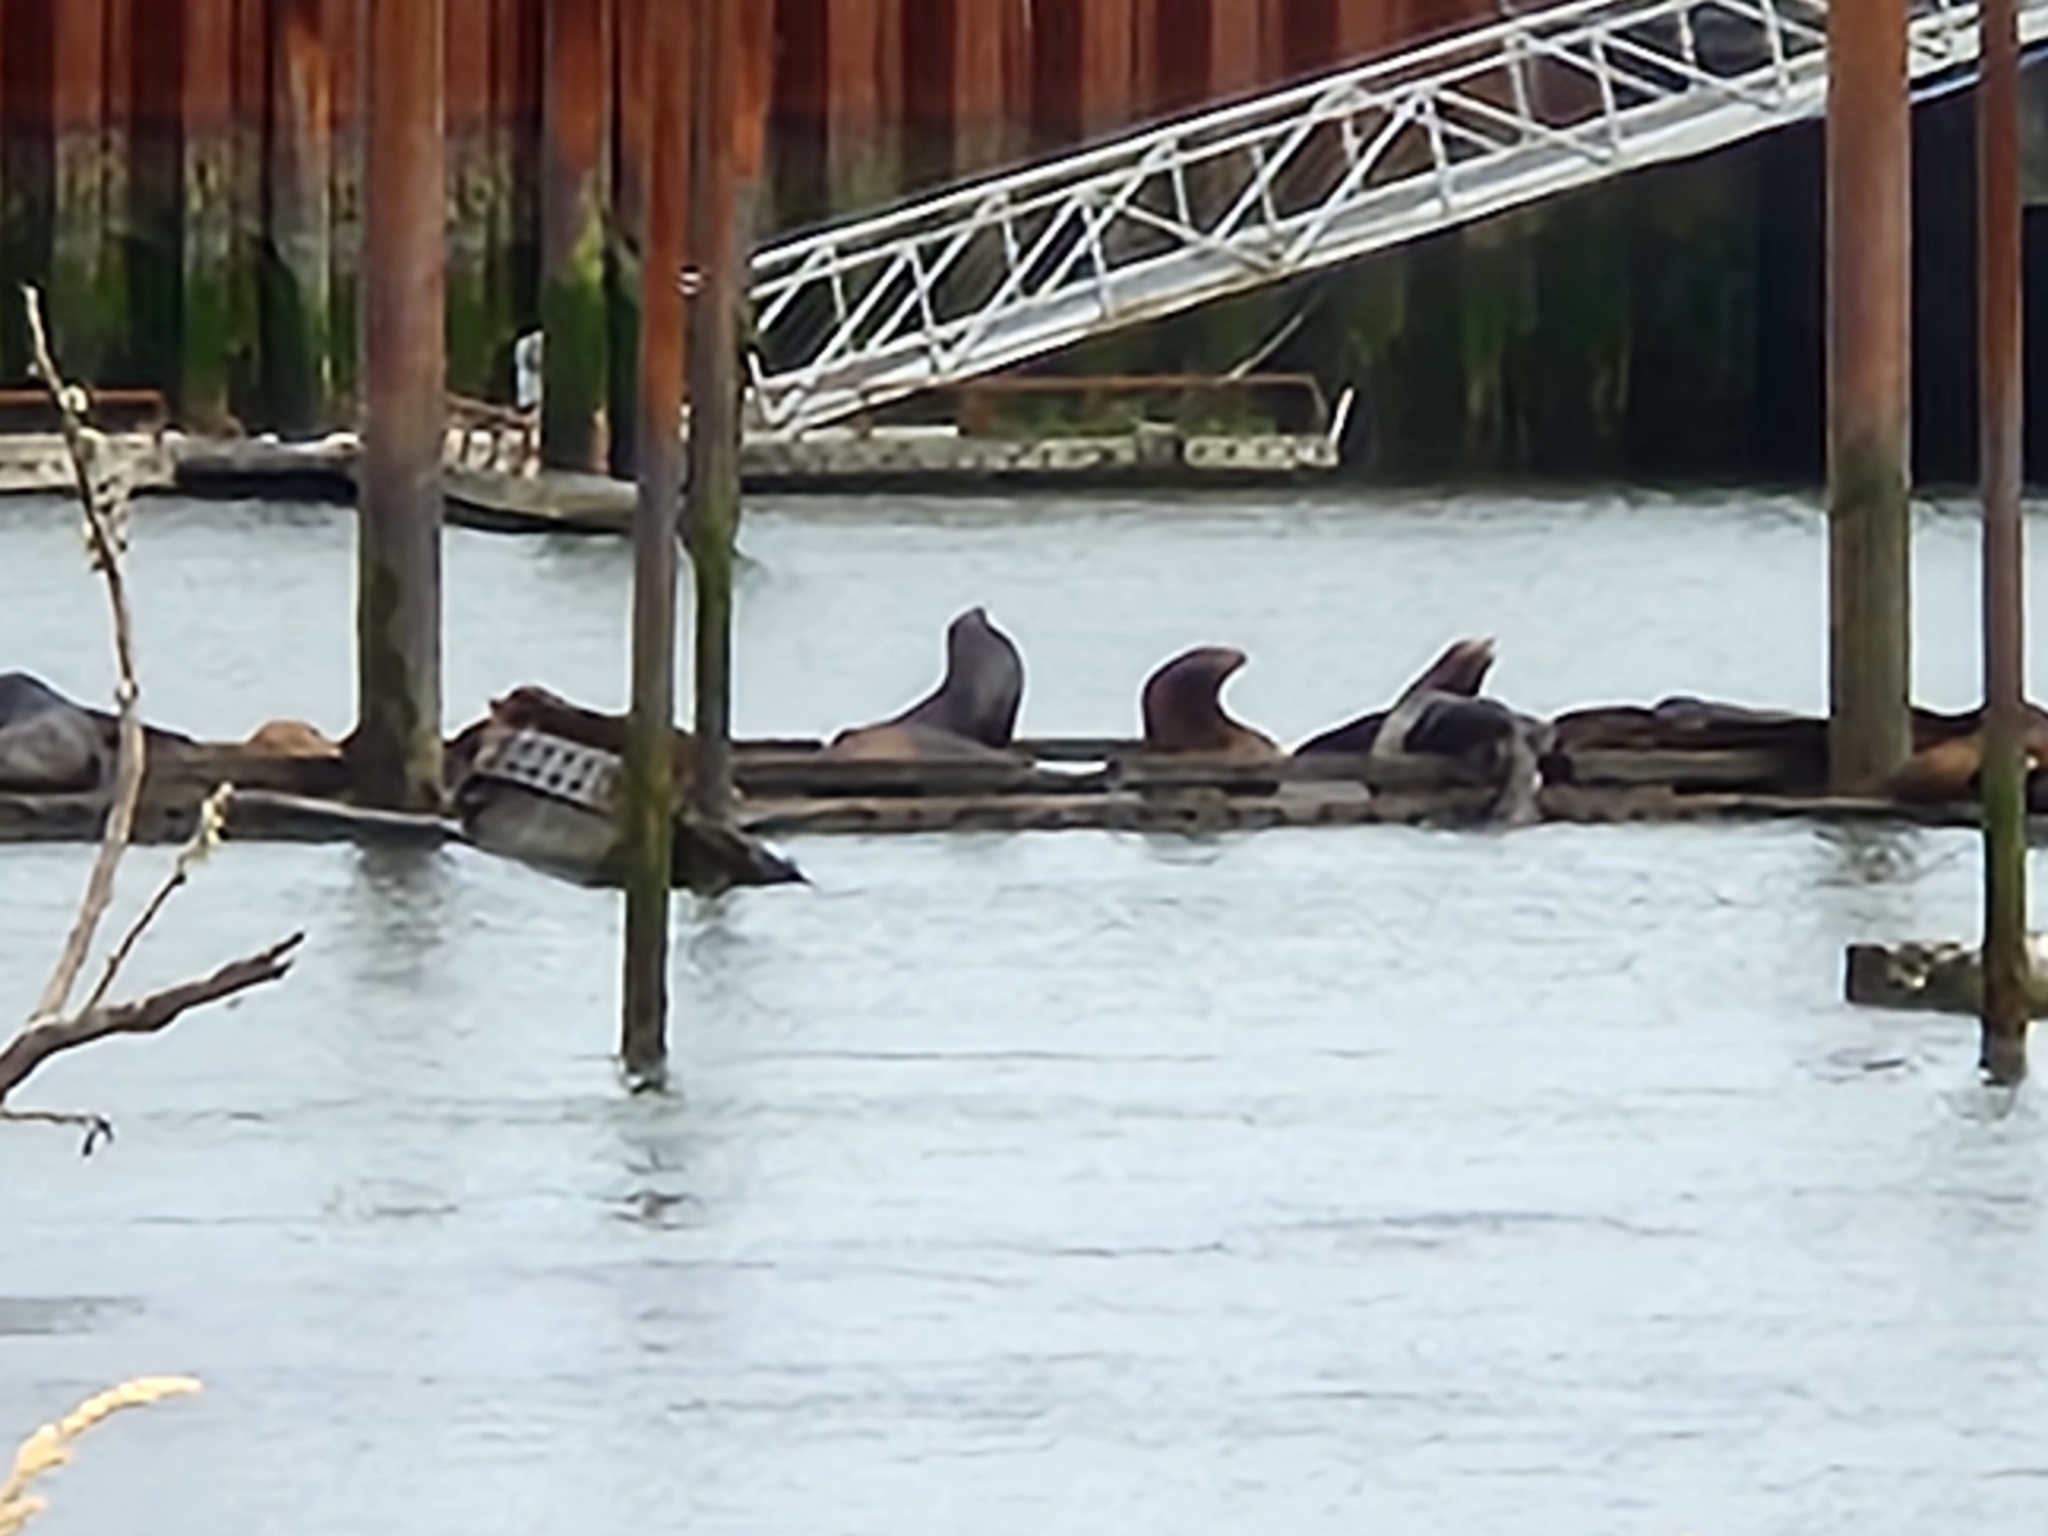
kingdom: Animalia
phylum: Chordata
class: Mammalia
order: Carnivora
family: Otariidae
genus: Zalophus
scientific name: Zalophus californianus
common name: California sea lion
